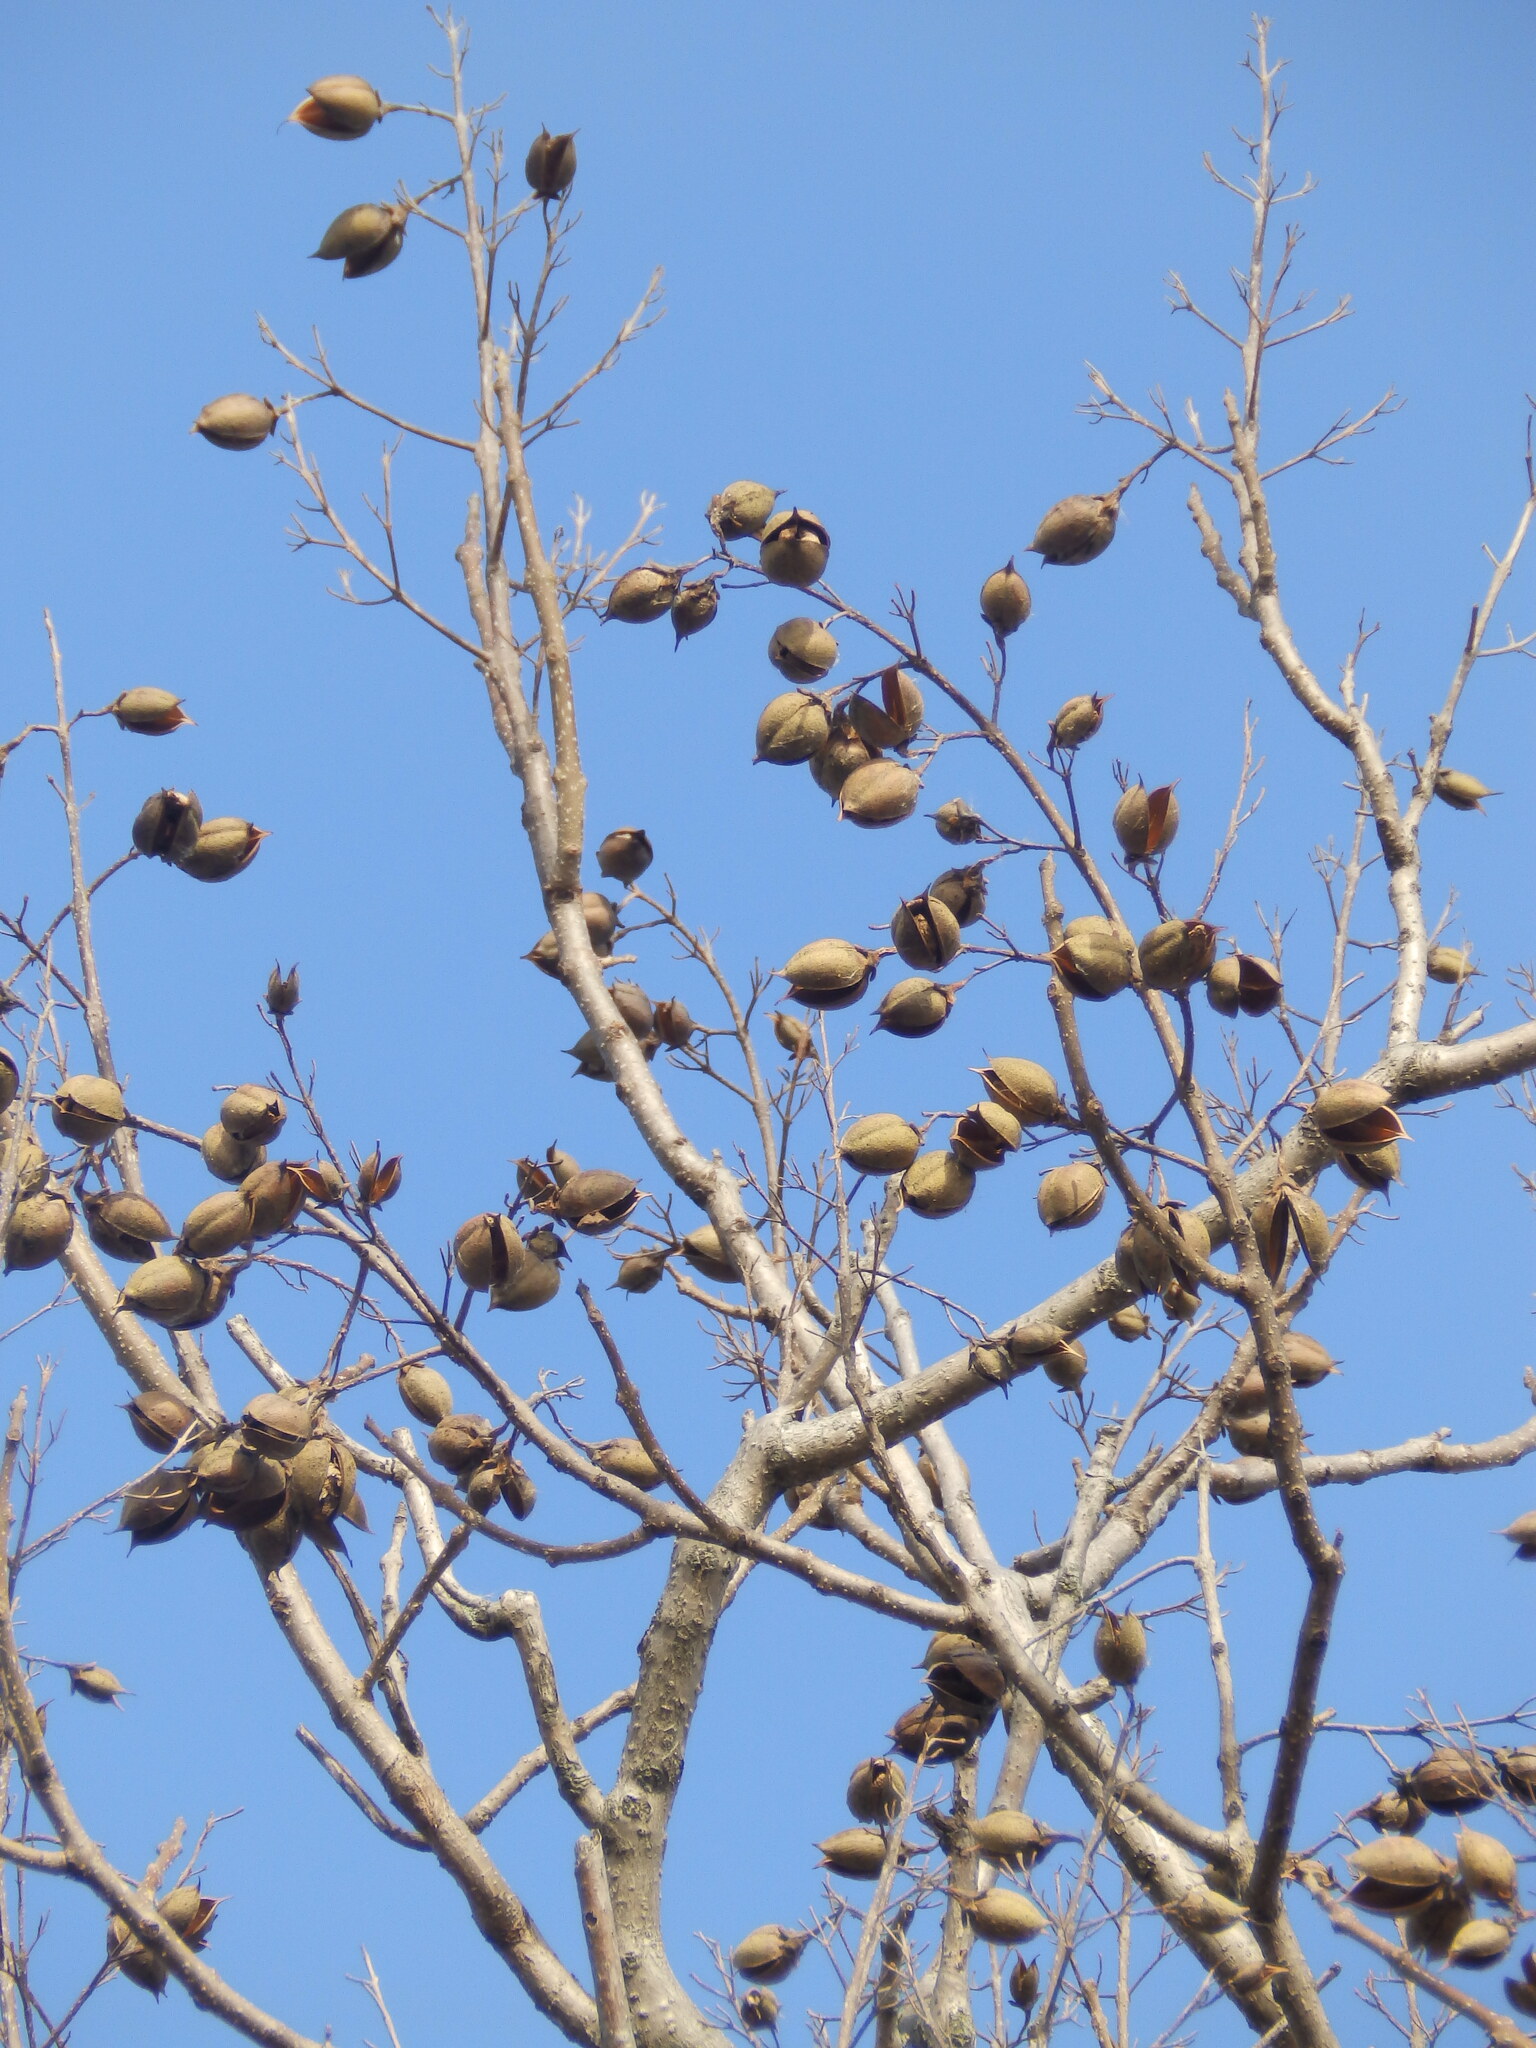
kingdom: Plantae
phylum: Tracheophyta
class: Magnoliopsida
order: Lamiales
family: Paulowniaceae
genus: Paulownia
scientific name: Paulownia tomentosa
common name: Foxglove-tree
